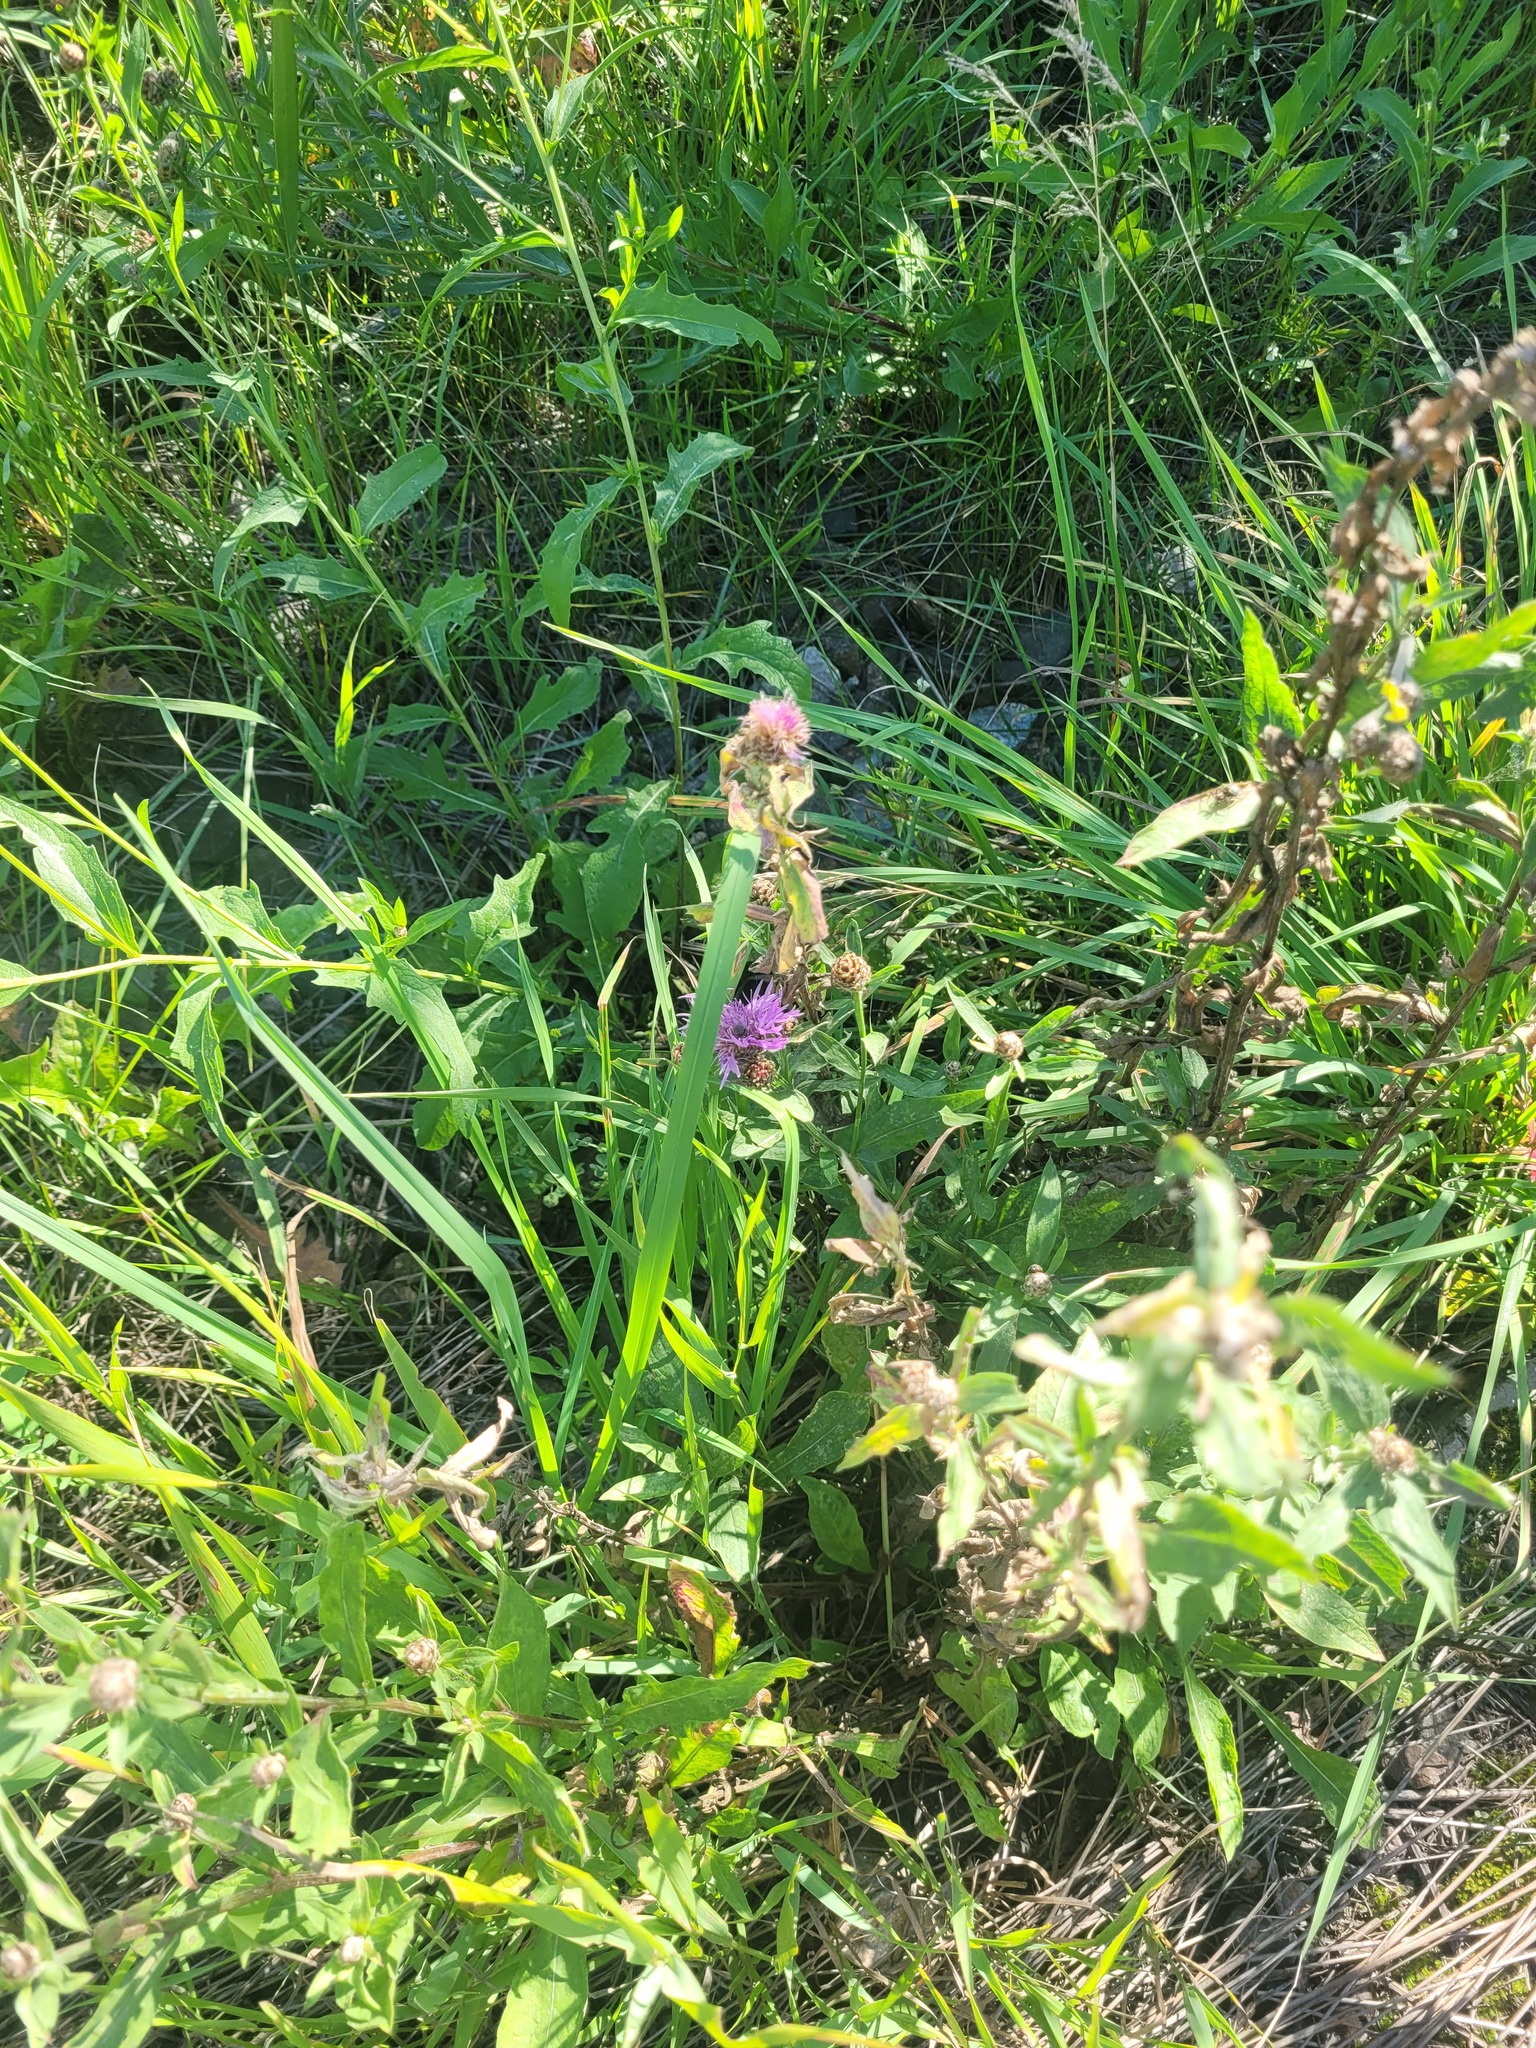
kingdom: Plantae
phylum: Tracheophyta
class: Magnoliopsida
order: Asterales
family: Asteraceae
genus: Centaurea
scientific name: Centaurea jacea
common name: Brown knapweed
